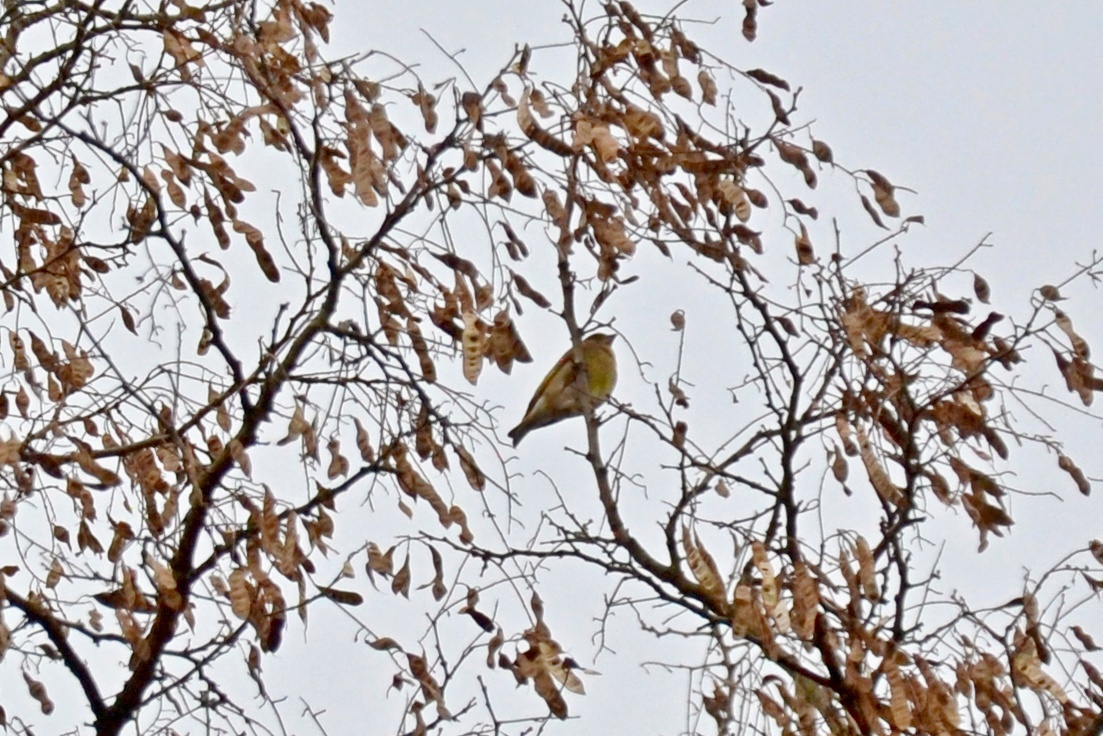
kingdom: Plantae
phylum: Tracheophyta
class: Liliopsida
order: Poales
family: Poaceae
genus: Chloris
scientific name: Chloris chloris
